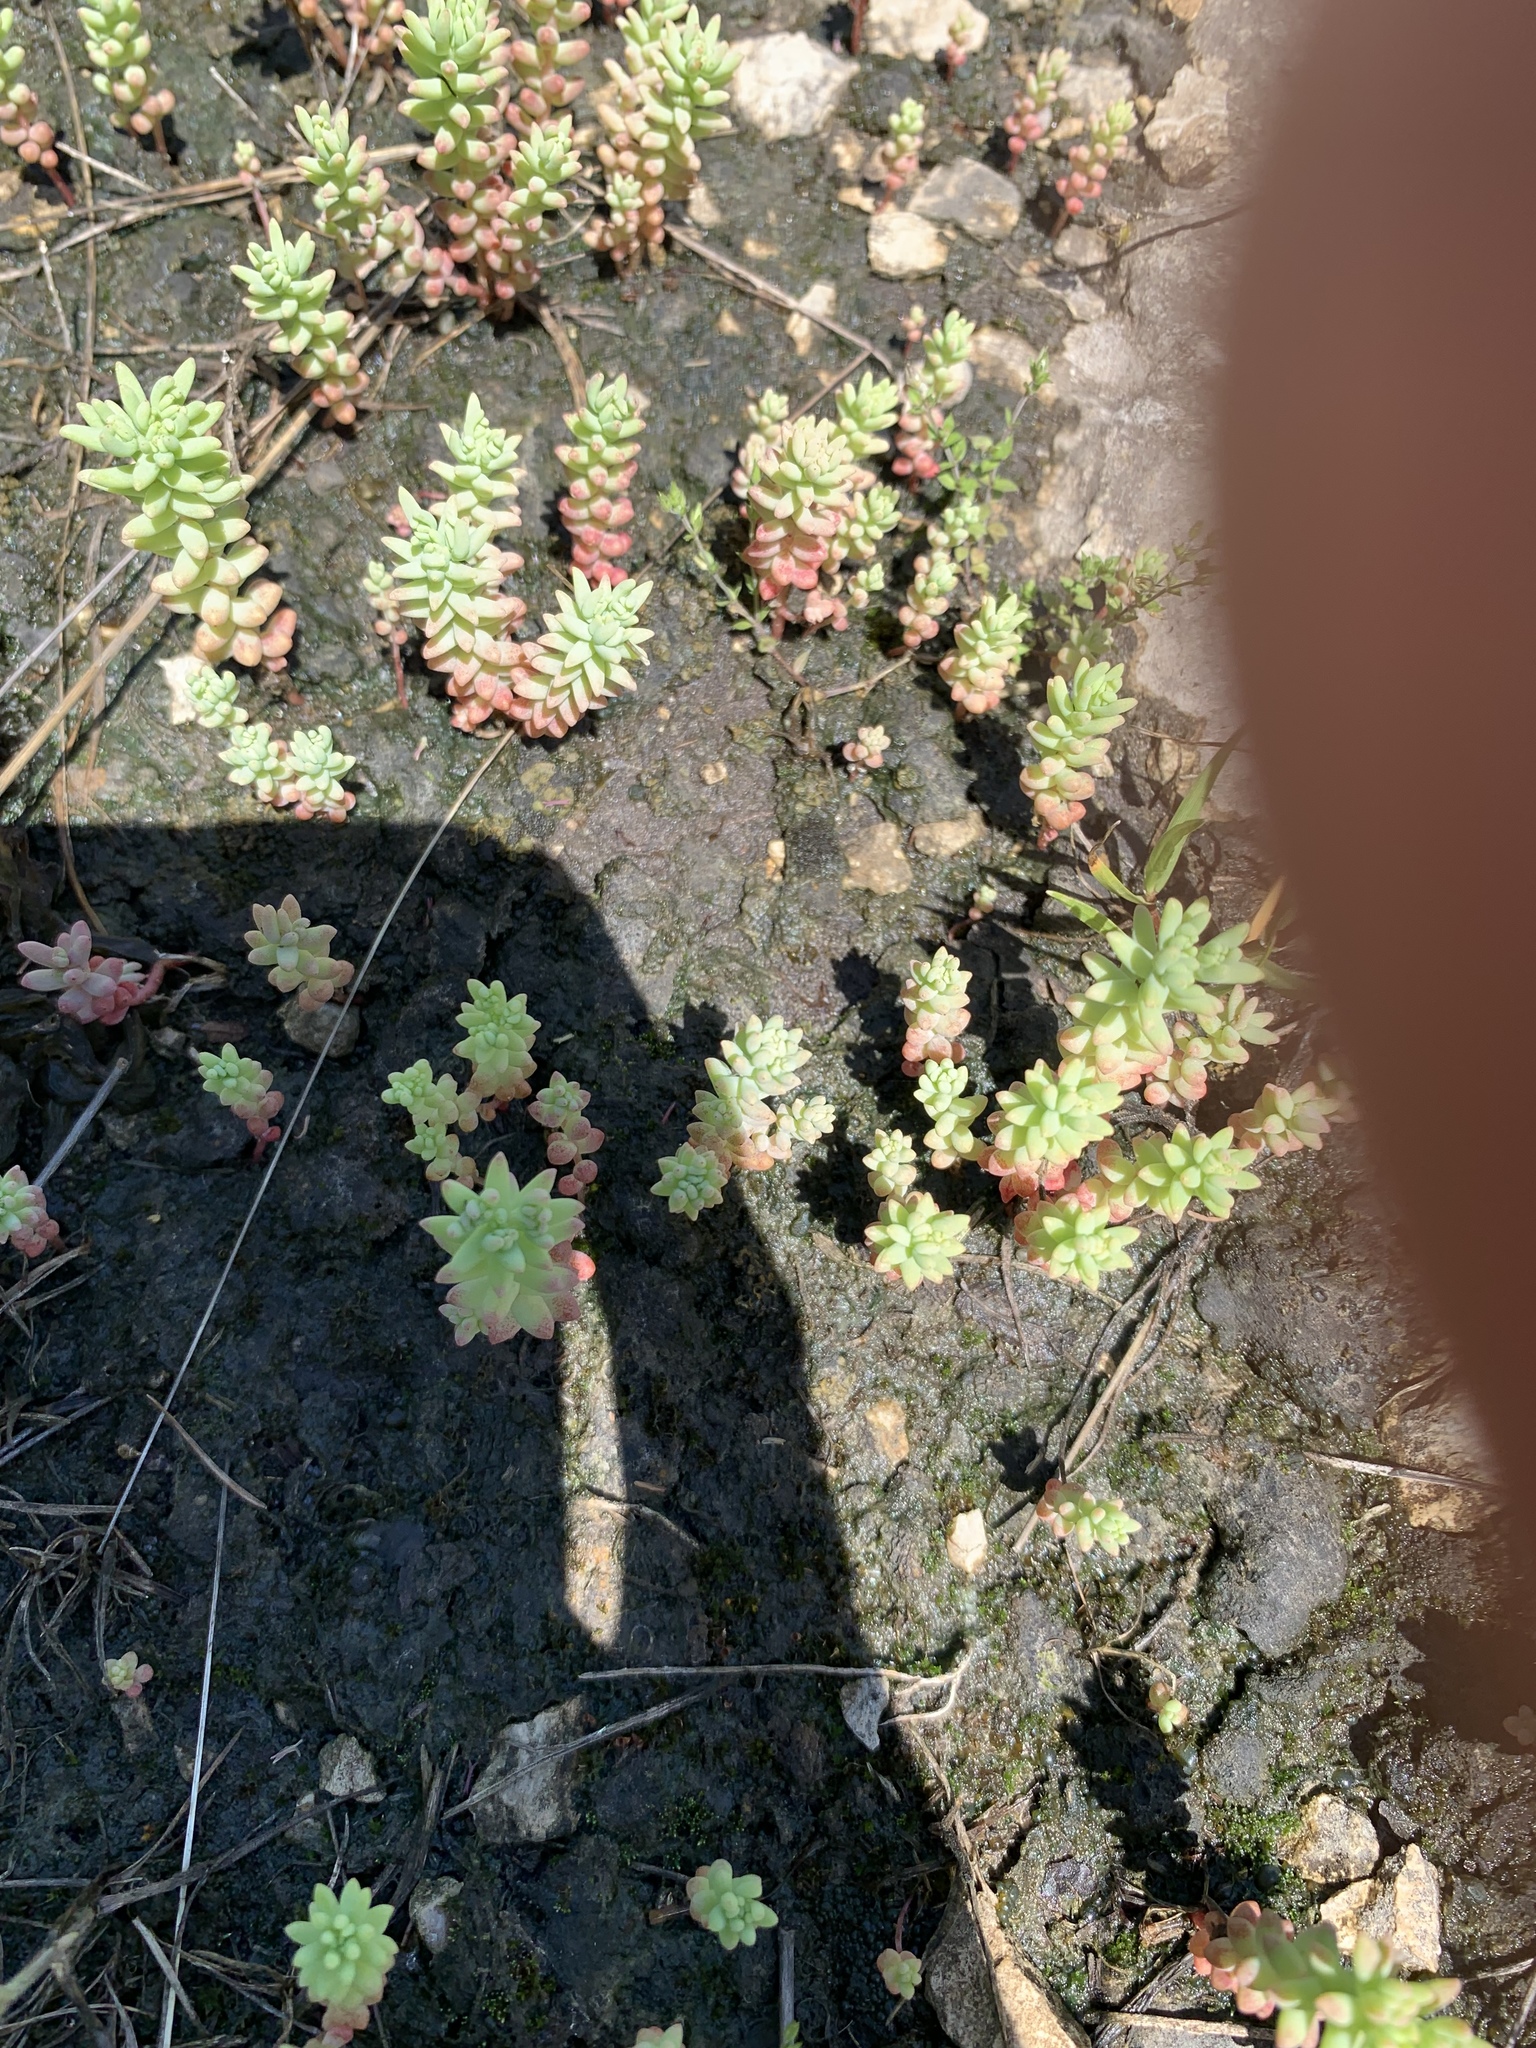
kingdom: Plantae
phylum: Tracheophyta
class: Magnoliopsida
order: Saxifragales
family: Crassulaceae
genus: Sedum
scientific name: Sedum nuttallii
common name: Yellow stonecrop
